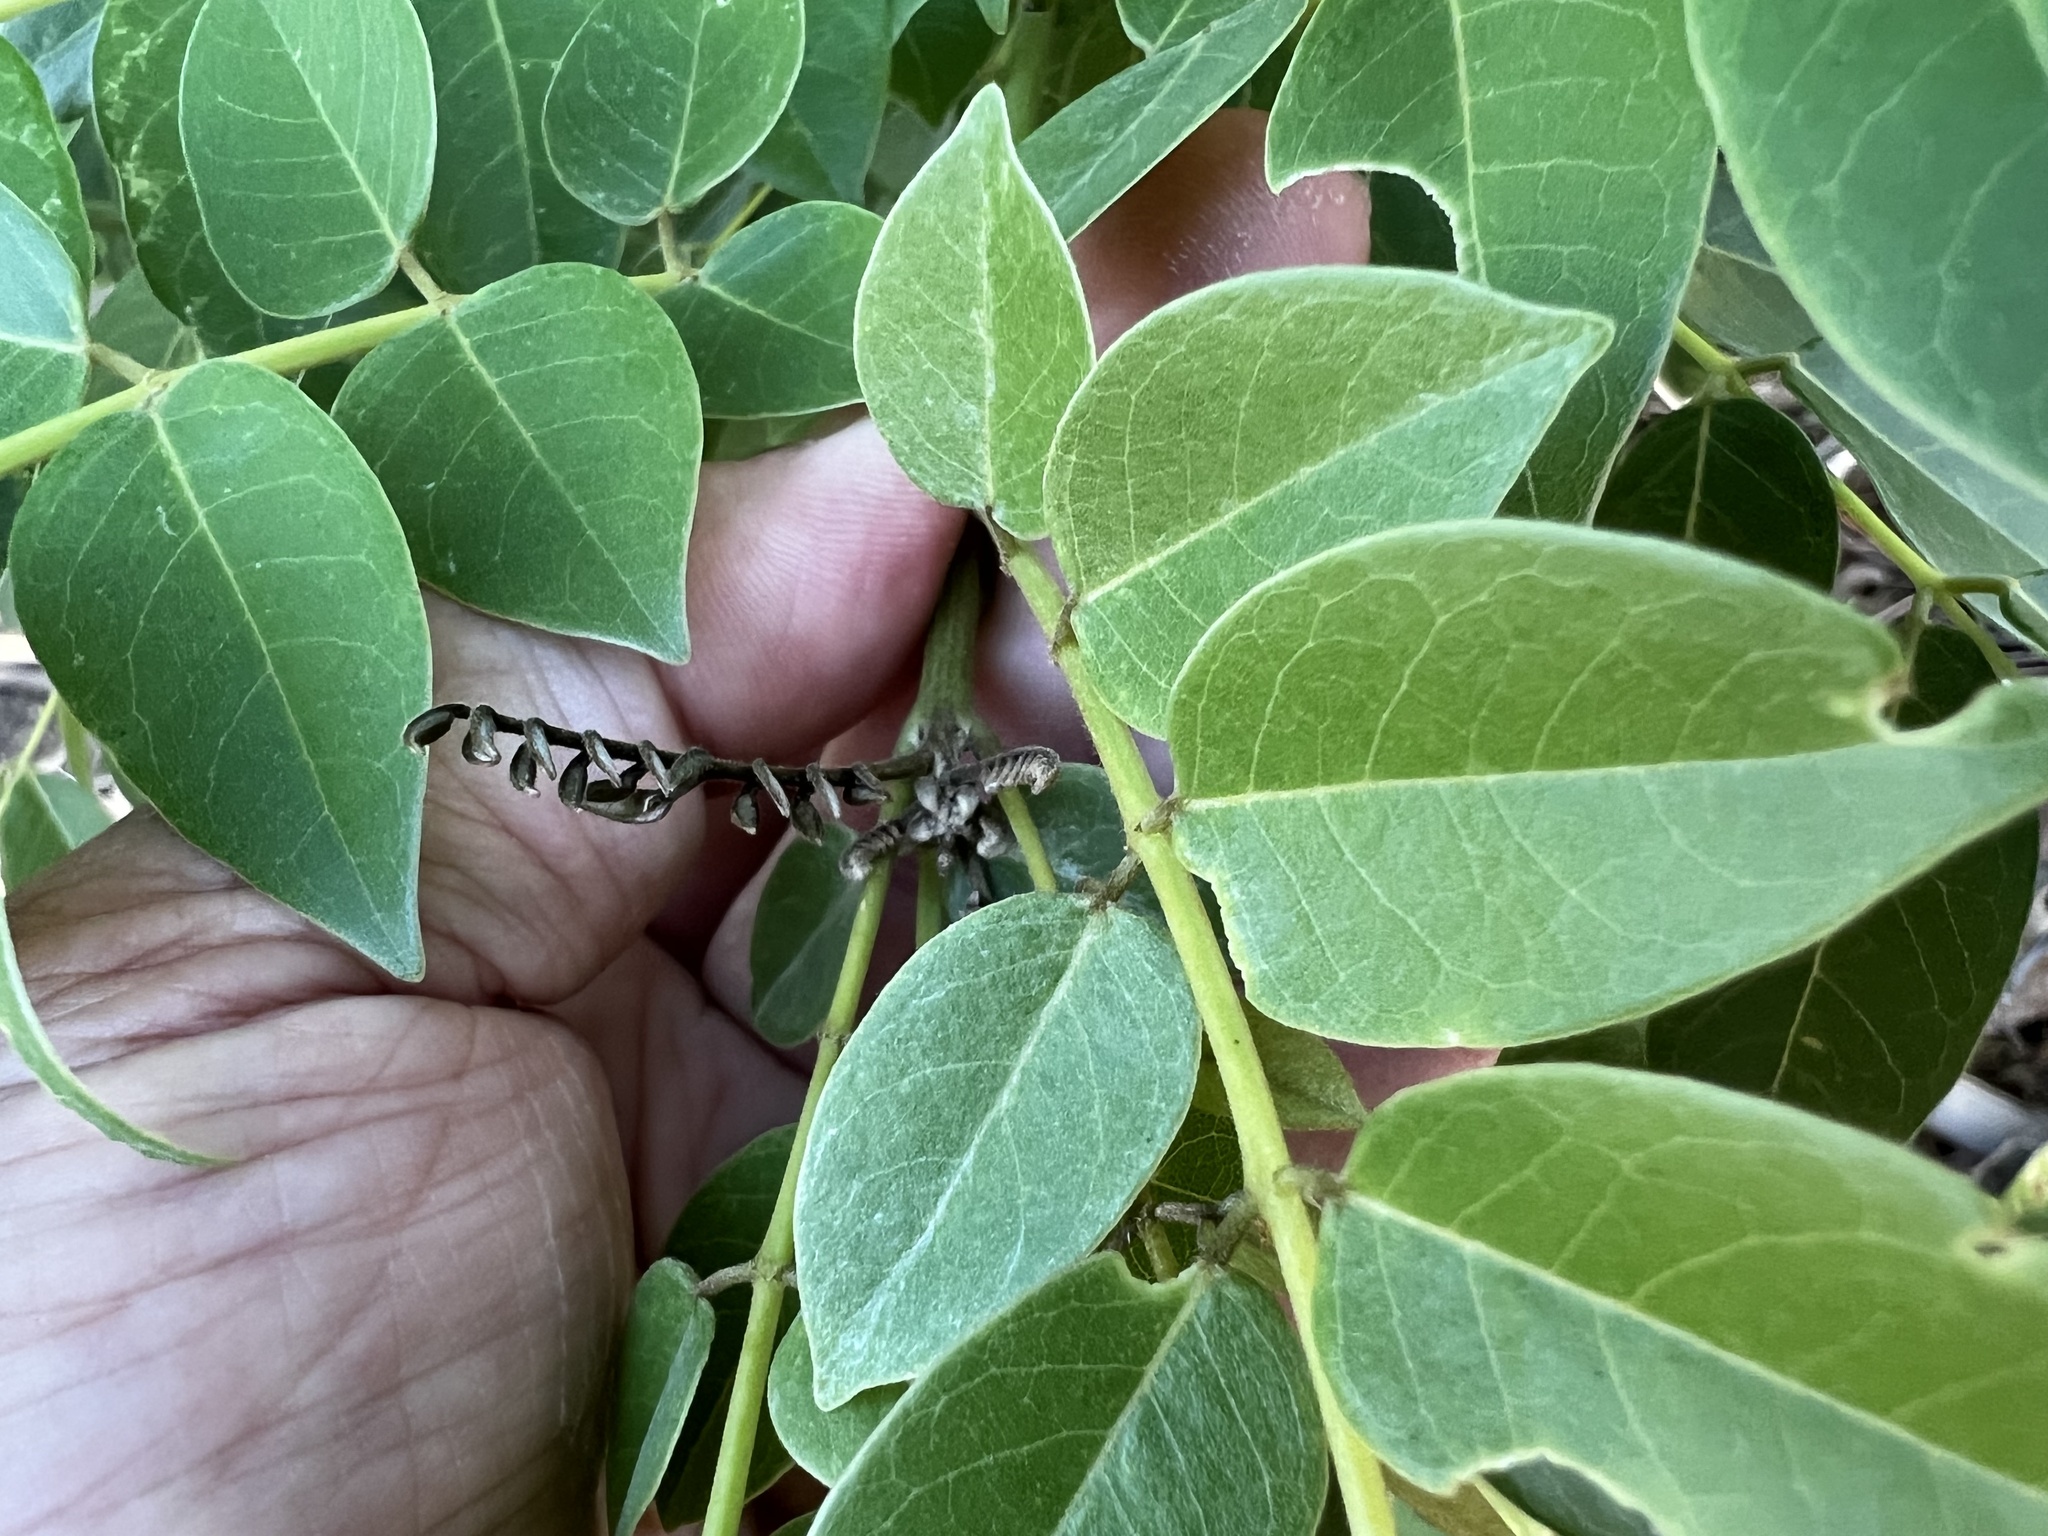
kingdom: Plantae
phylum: Tracheophyta
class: Magnoliopsida
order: Fabales
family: Fabaceae
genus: Gliricidia
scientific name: Gliricidia sepium
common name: Quickstick
